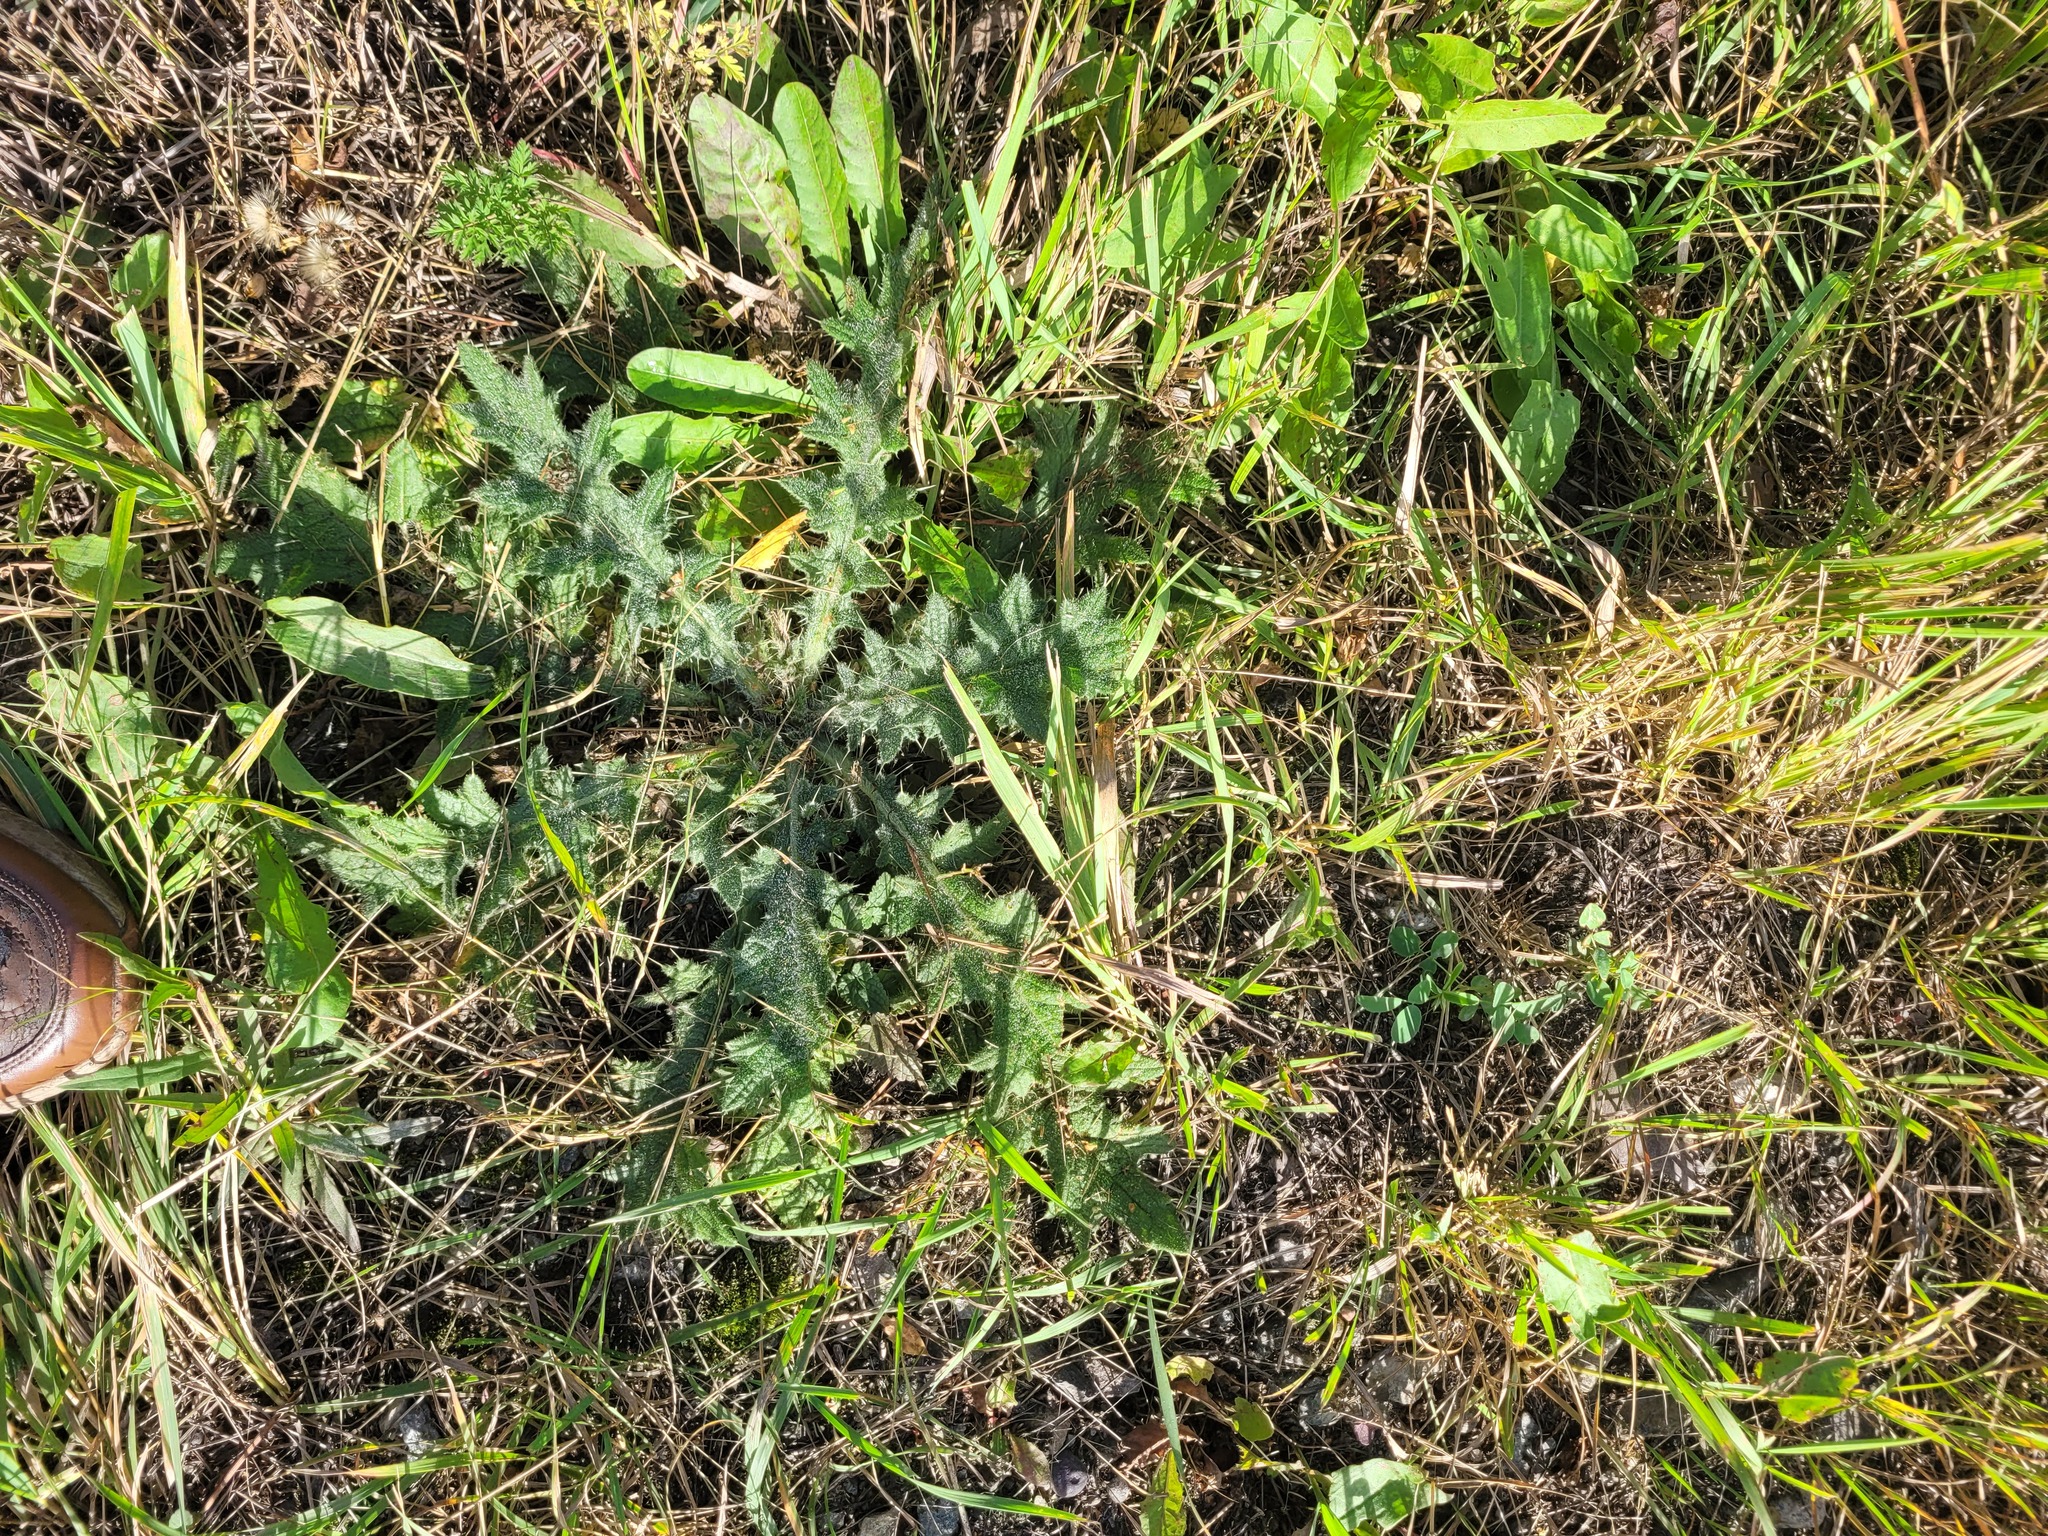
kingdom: Plantae
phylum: Tracheophyta
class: Magnoliopsida
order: Asterales
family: Asteraceae
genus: Cirsium
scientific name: Cirsium vulgare
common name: Bull thistle
